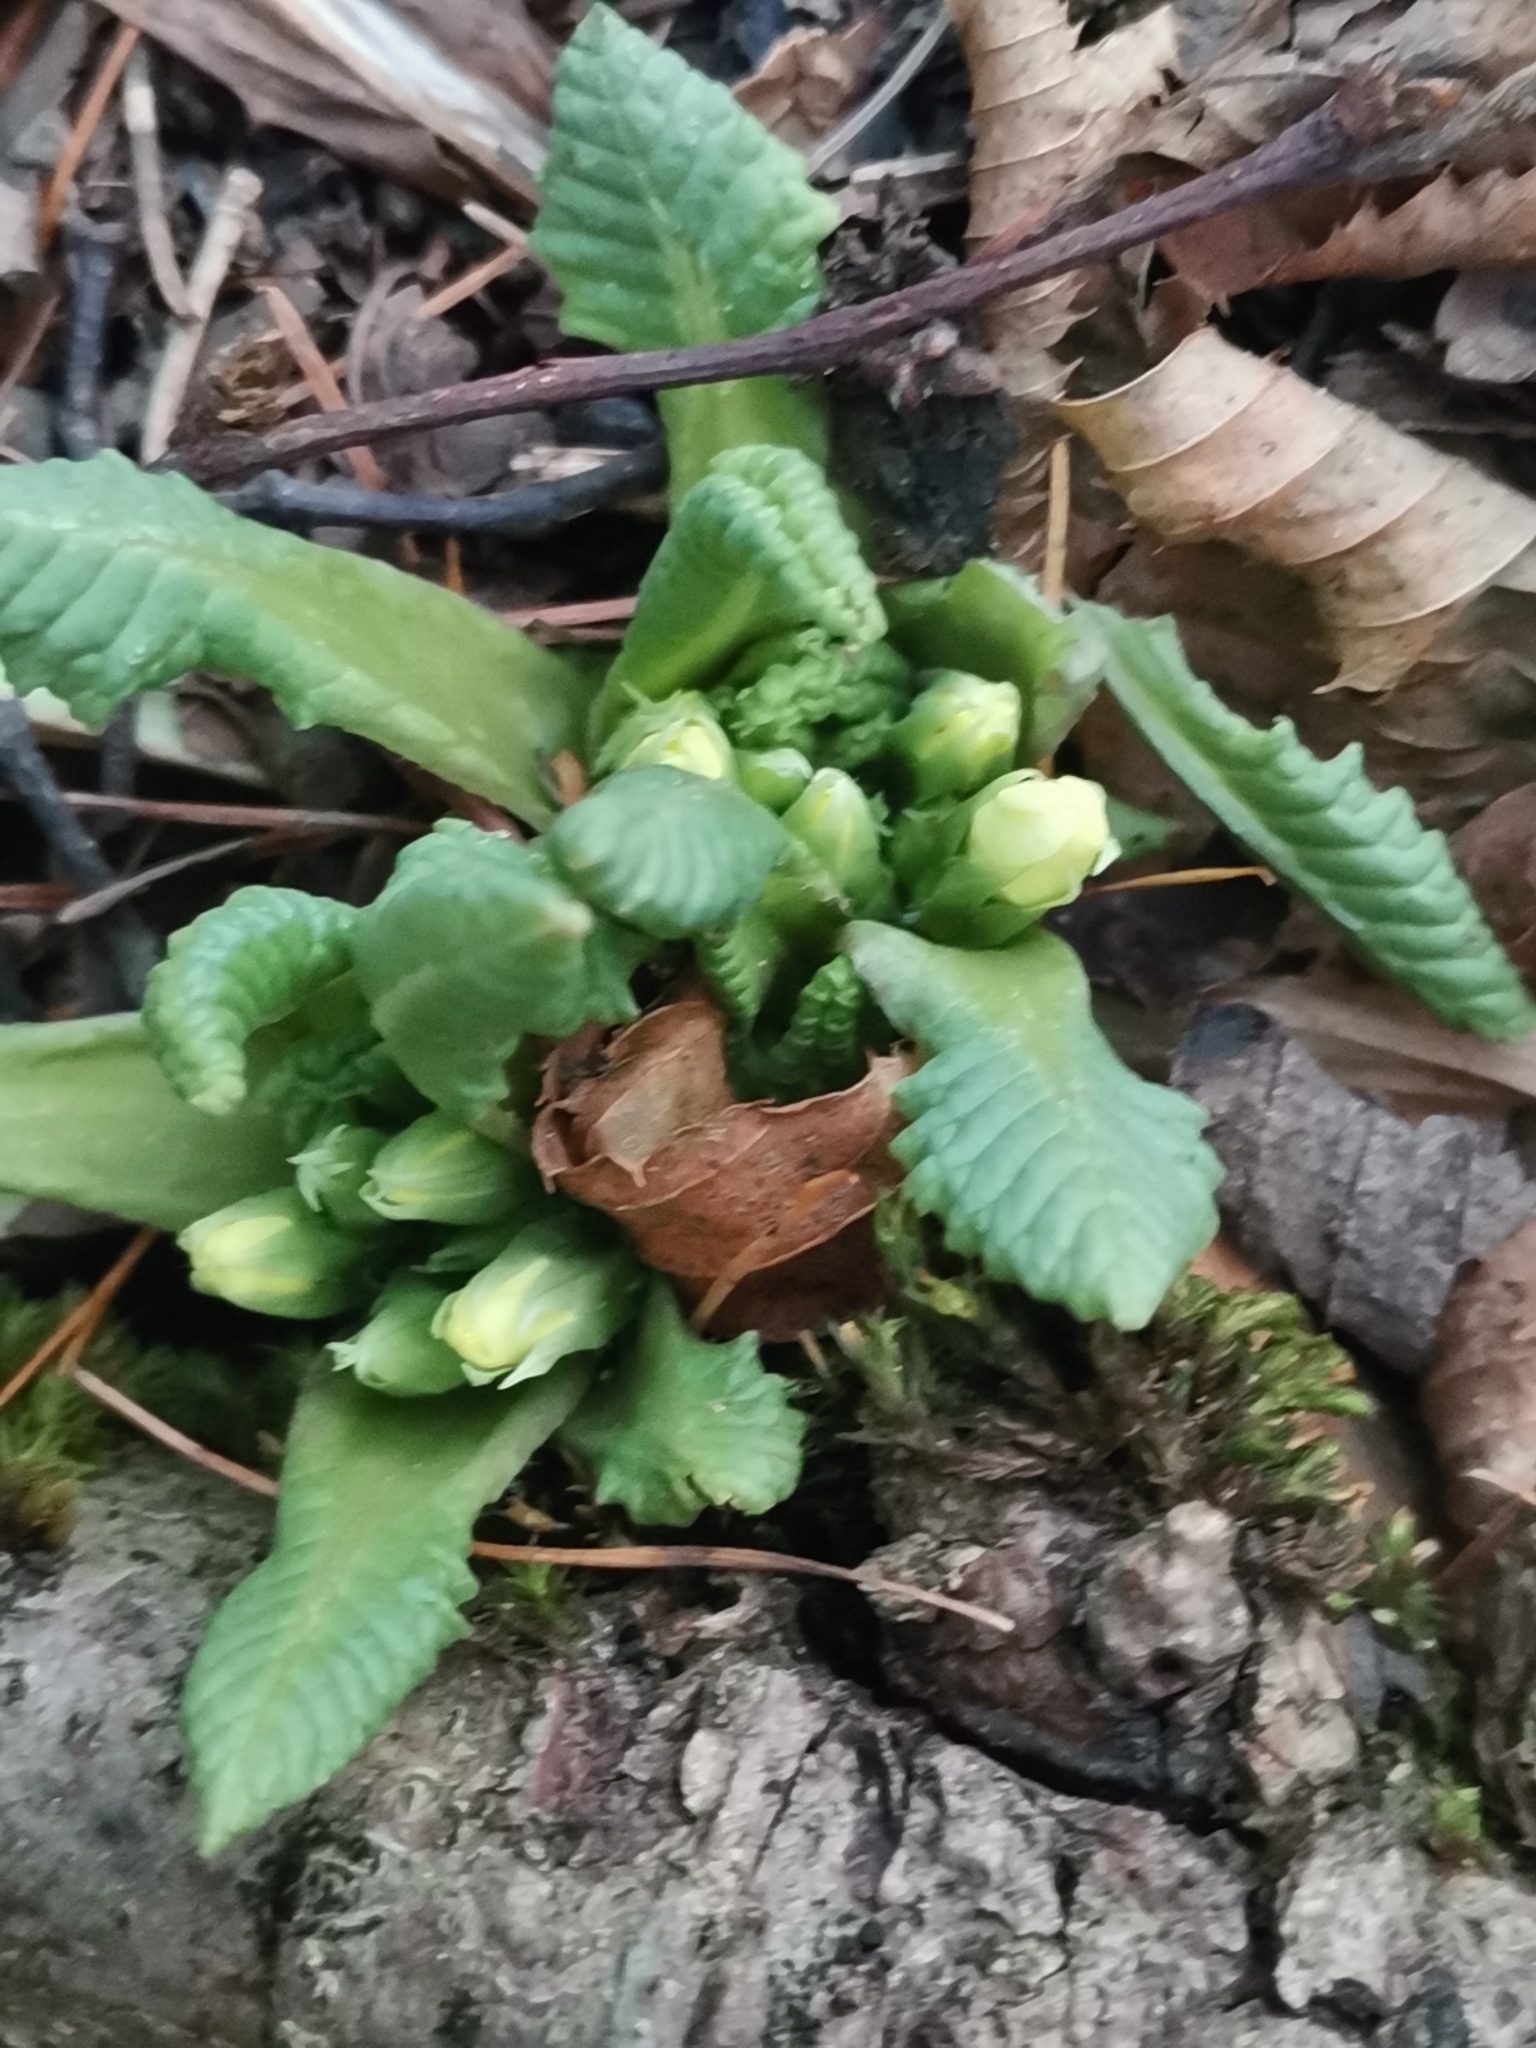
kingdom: Plantae
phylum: Tracheophyta
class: Magnoliopsida
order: Ericales
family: Primulaceae
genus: Primula
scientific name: Primula vulgaris
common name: Primrose
